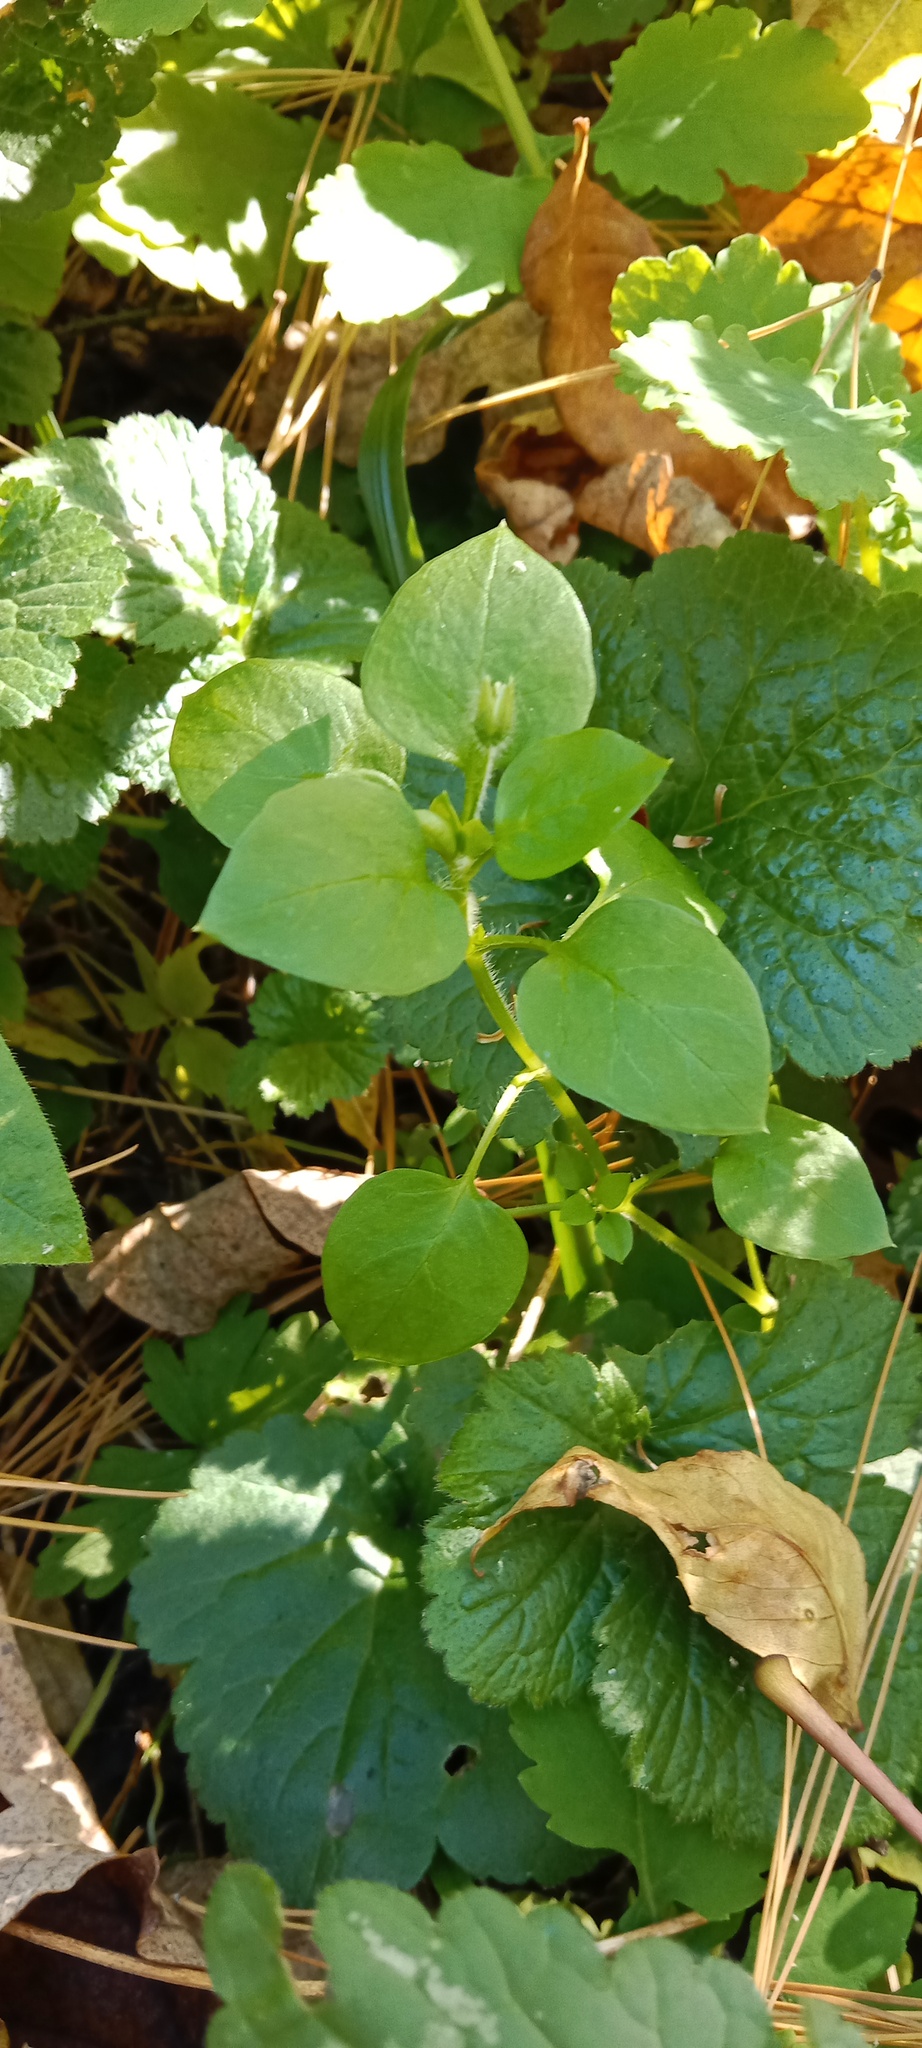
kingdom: Plantae
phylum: Tracheophyta
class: Magnoliopsida
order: Caryophyllales
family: Caryophyllaceae
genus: Stellaria
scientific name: Stellaria media
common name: Common chickweed
